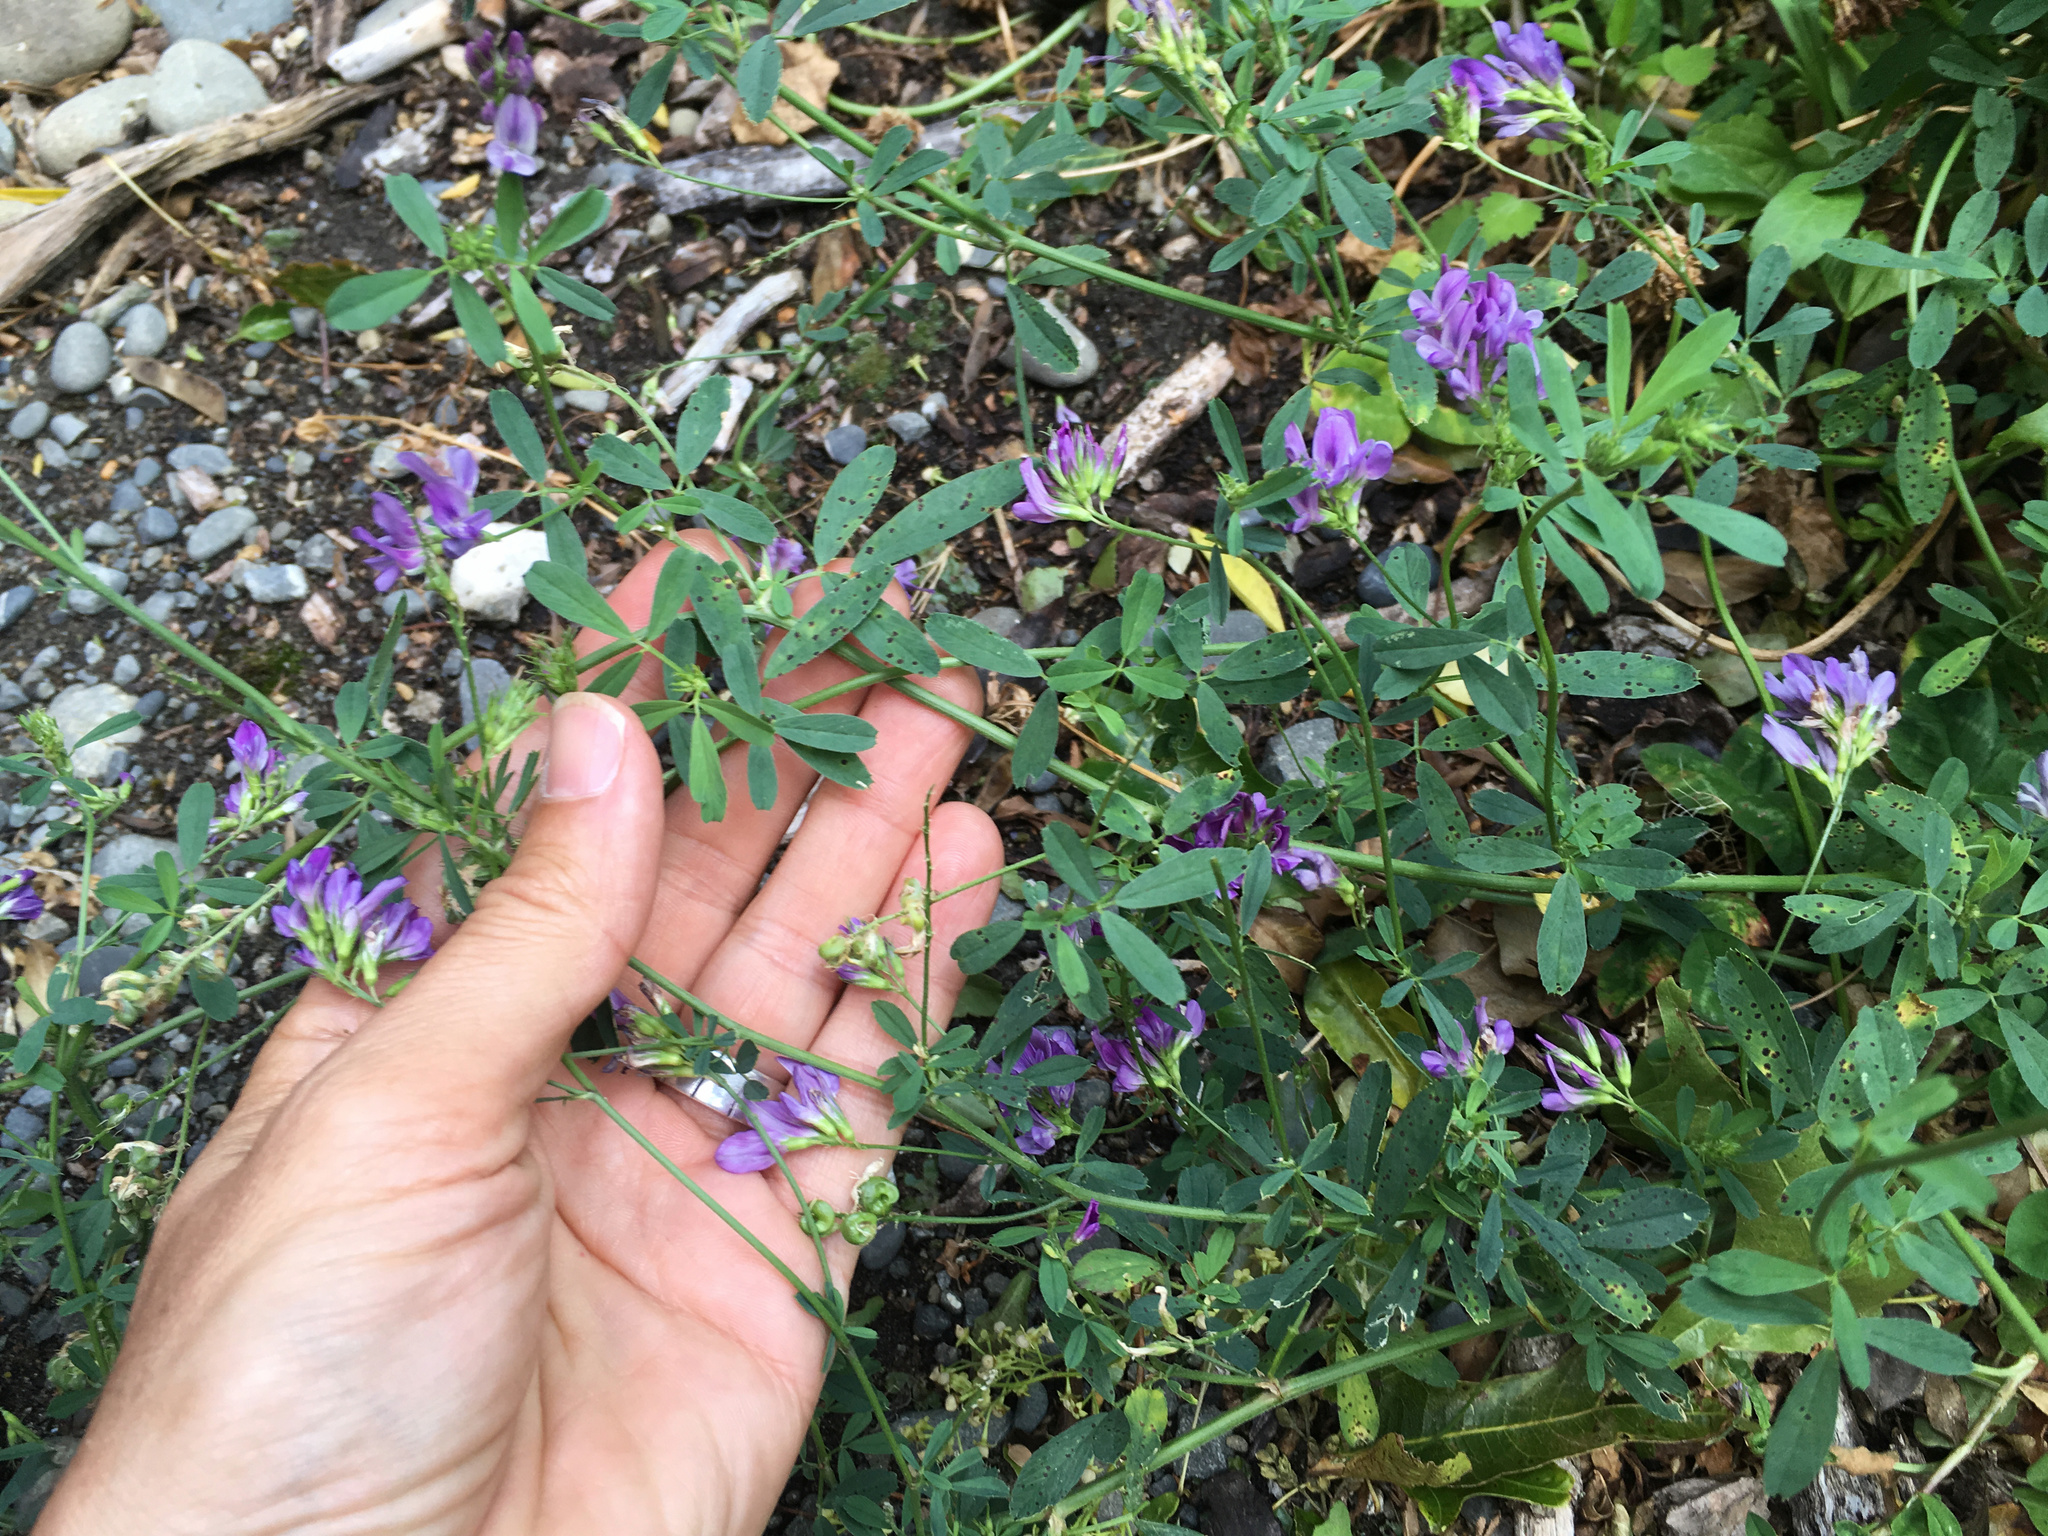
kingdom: Plantae
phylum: Tracheophyta
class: Magnoliopsida
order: Fabales
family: Fabaceae
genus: Medicago
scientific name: Medicago sativa
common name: Alfalfa
